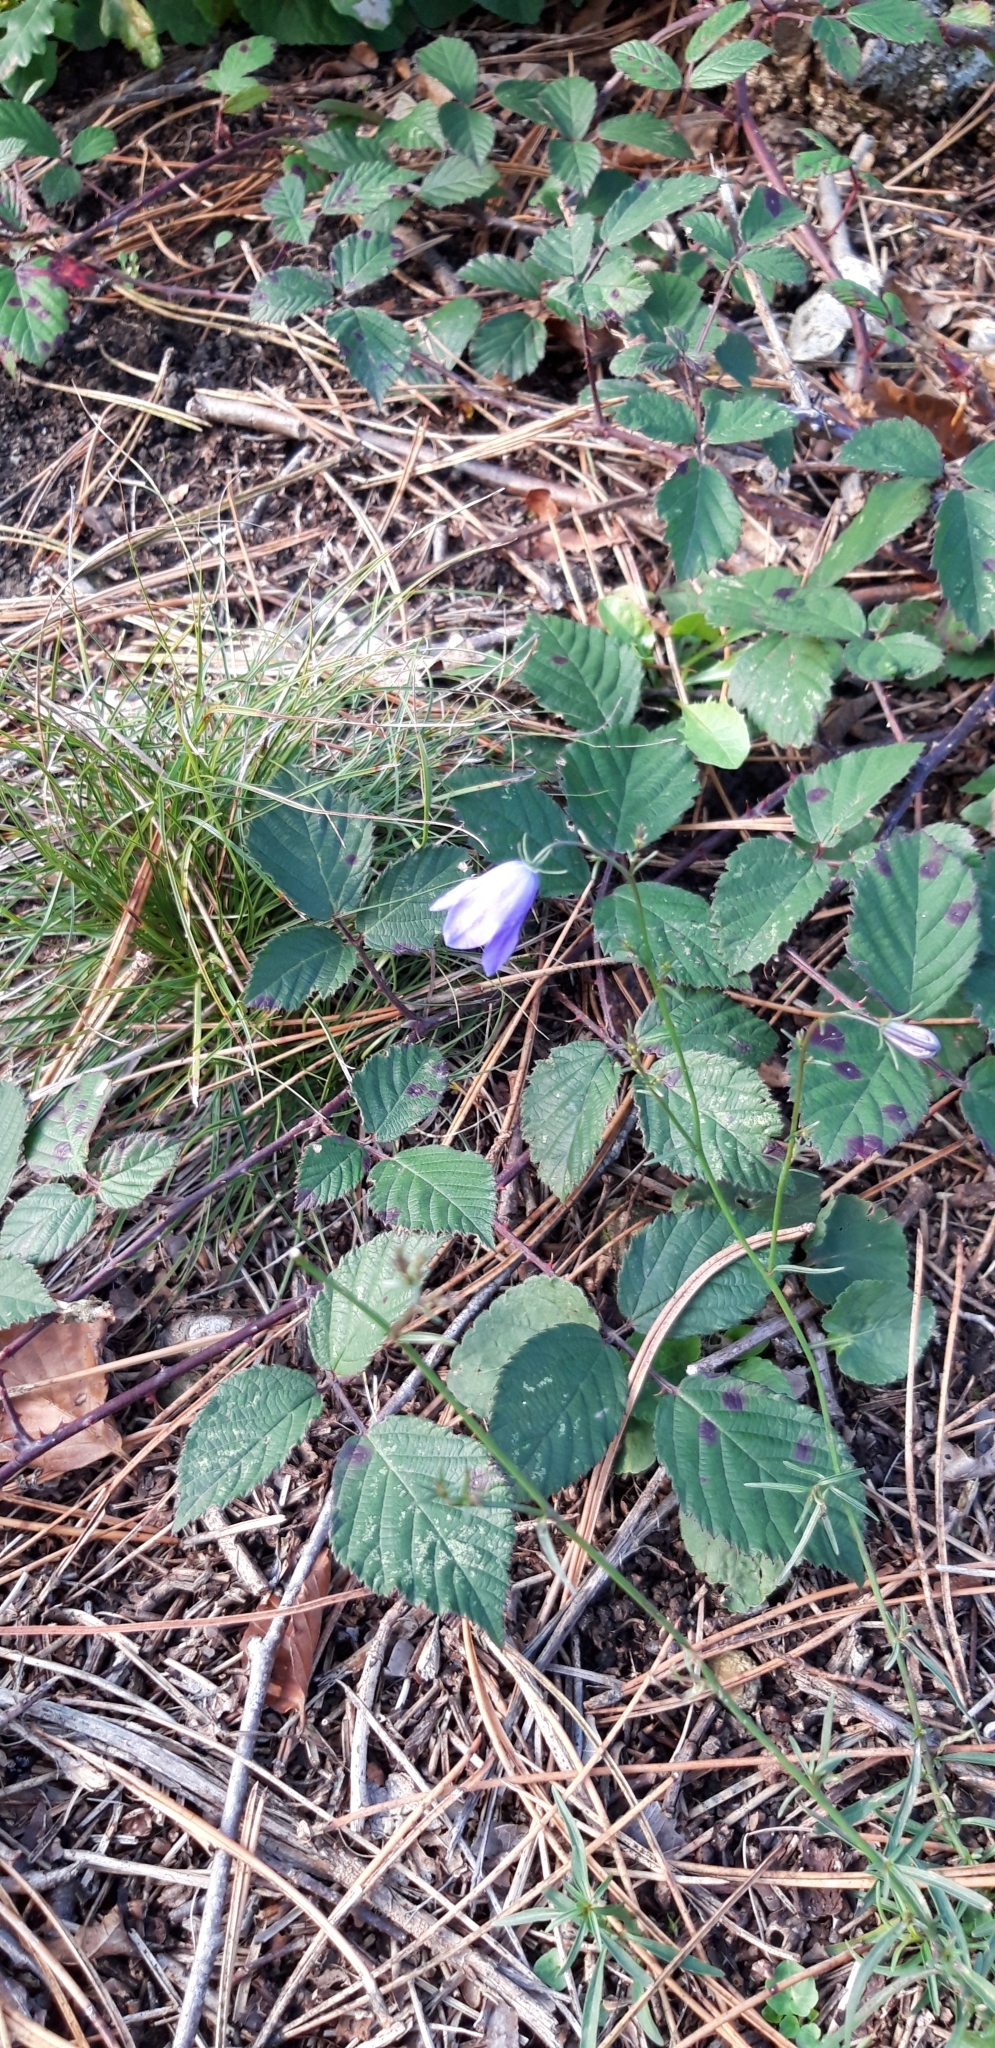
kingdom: Plantae
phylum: Tracheophyta
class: Magnoliopsida
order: Asterales
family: Campanulaceae
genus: Campanula
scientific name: Campanula rotundifolia
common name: Harebell
